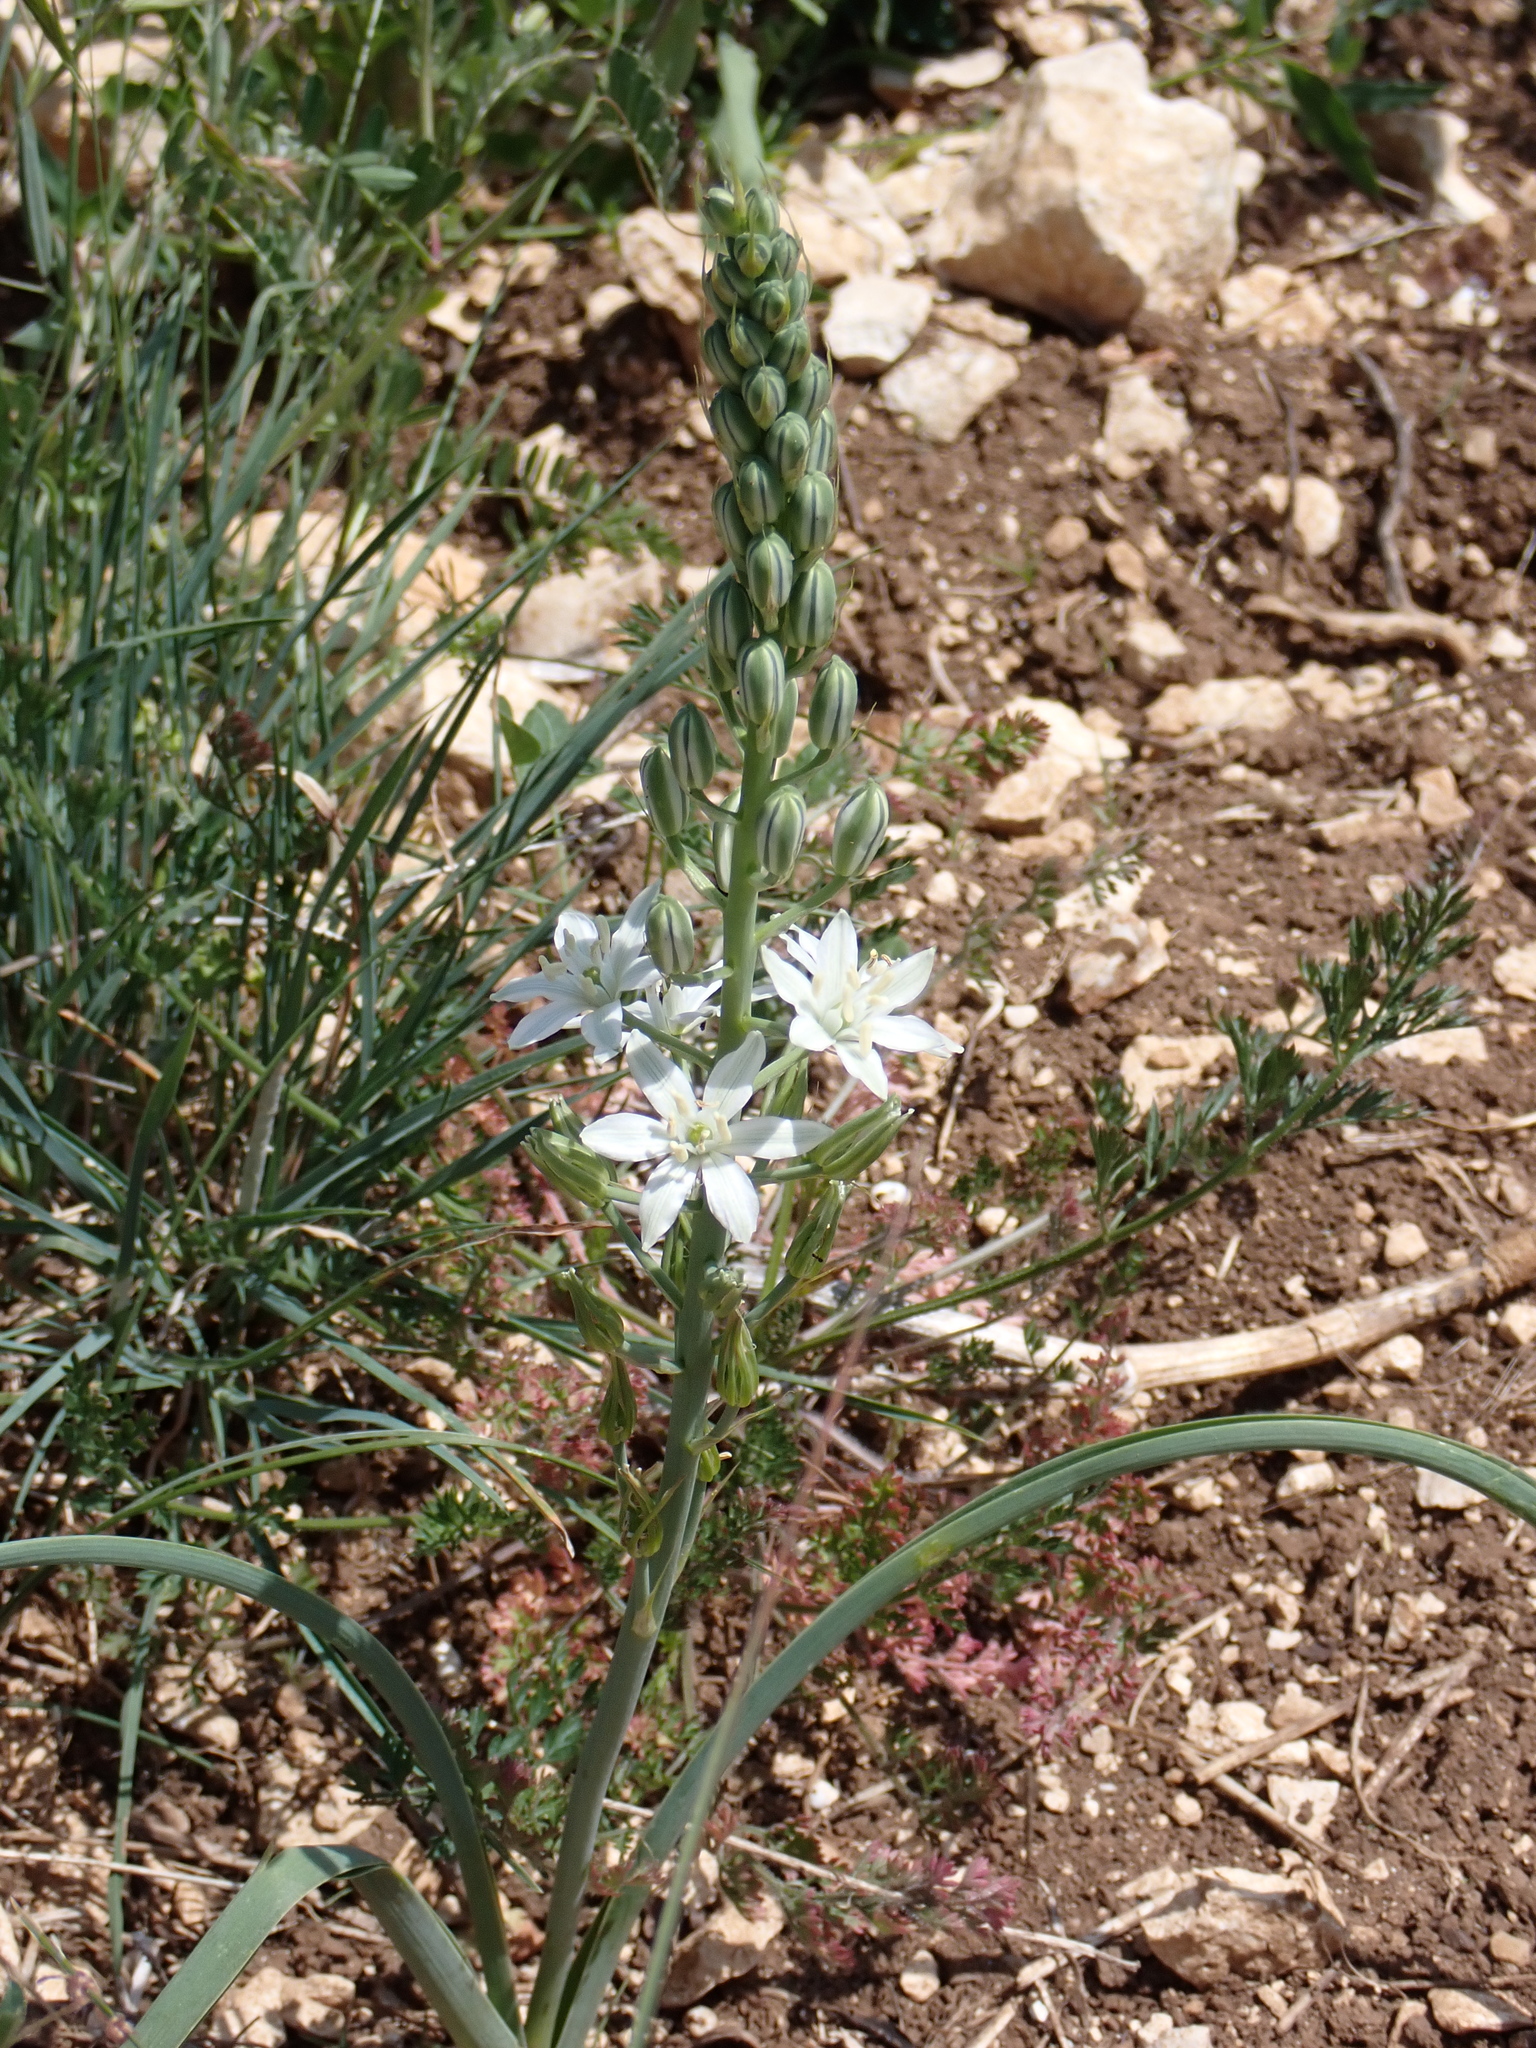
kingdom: Plantae
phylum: Tracheophyta
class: Liliopsida
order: Asparagales
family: Asparagaceae
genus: Ornithogalum
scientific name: Ornithogalum narbonense
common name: Bath-asparagus
